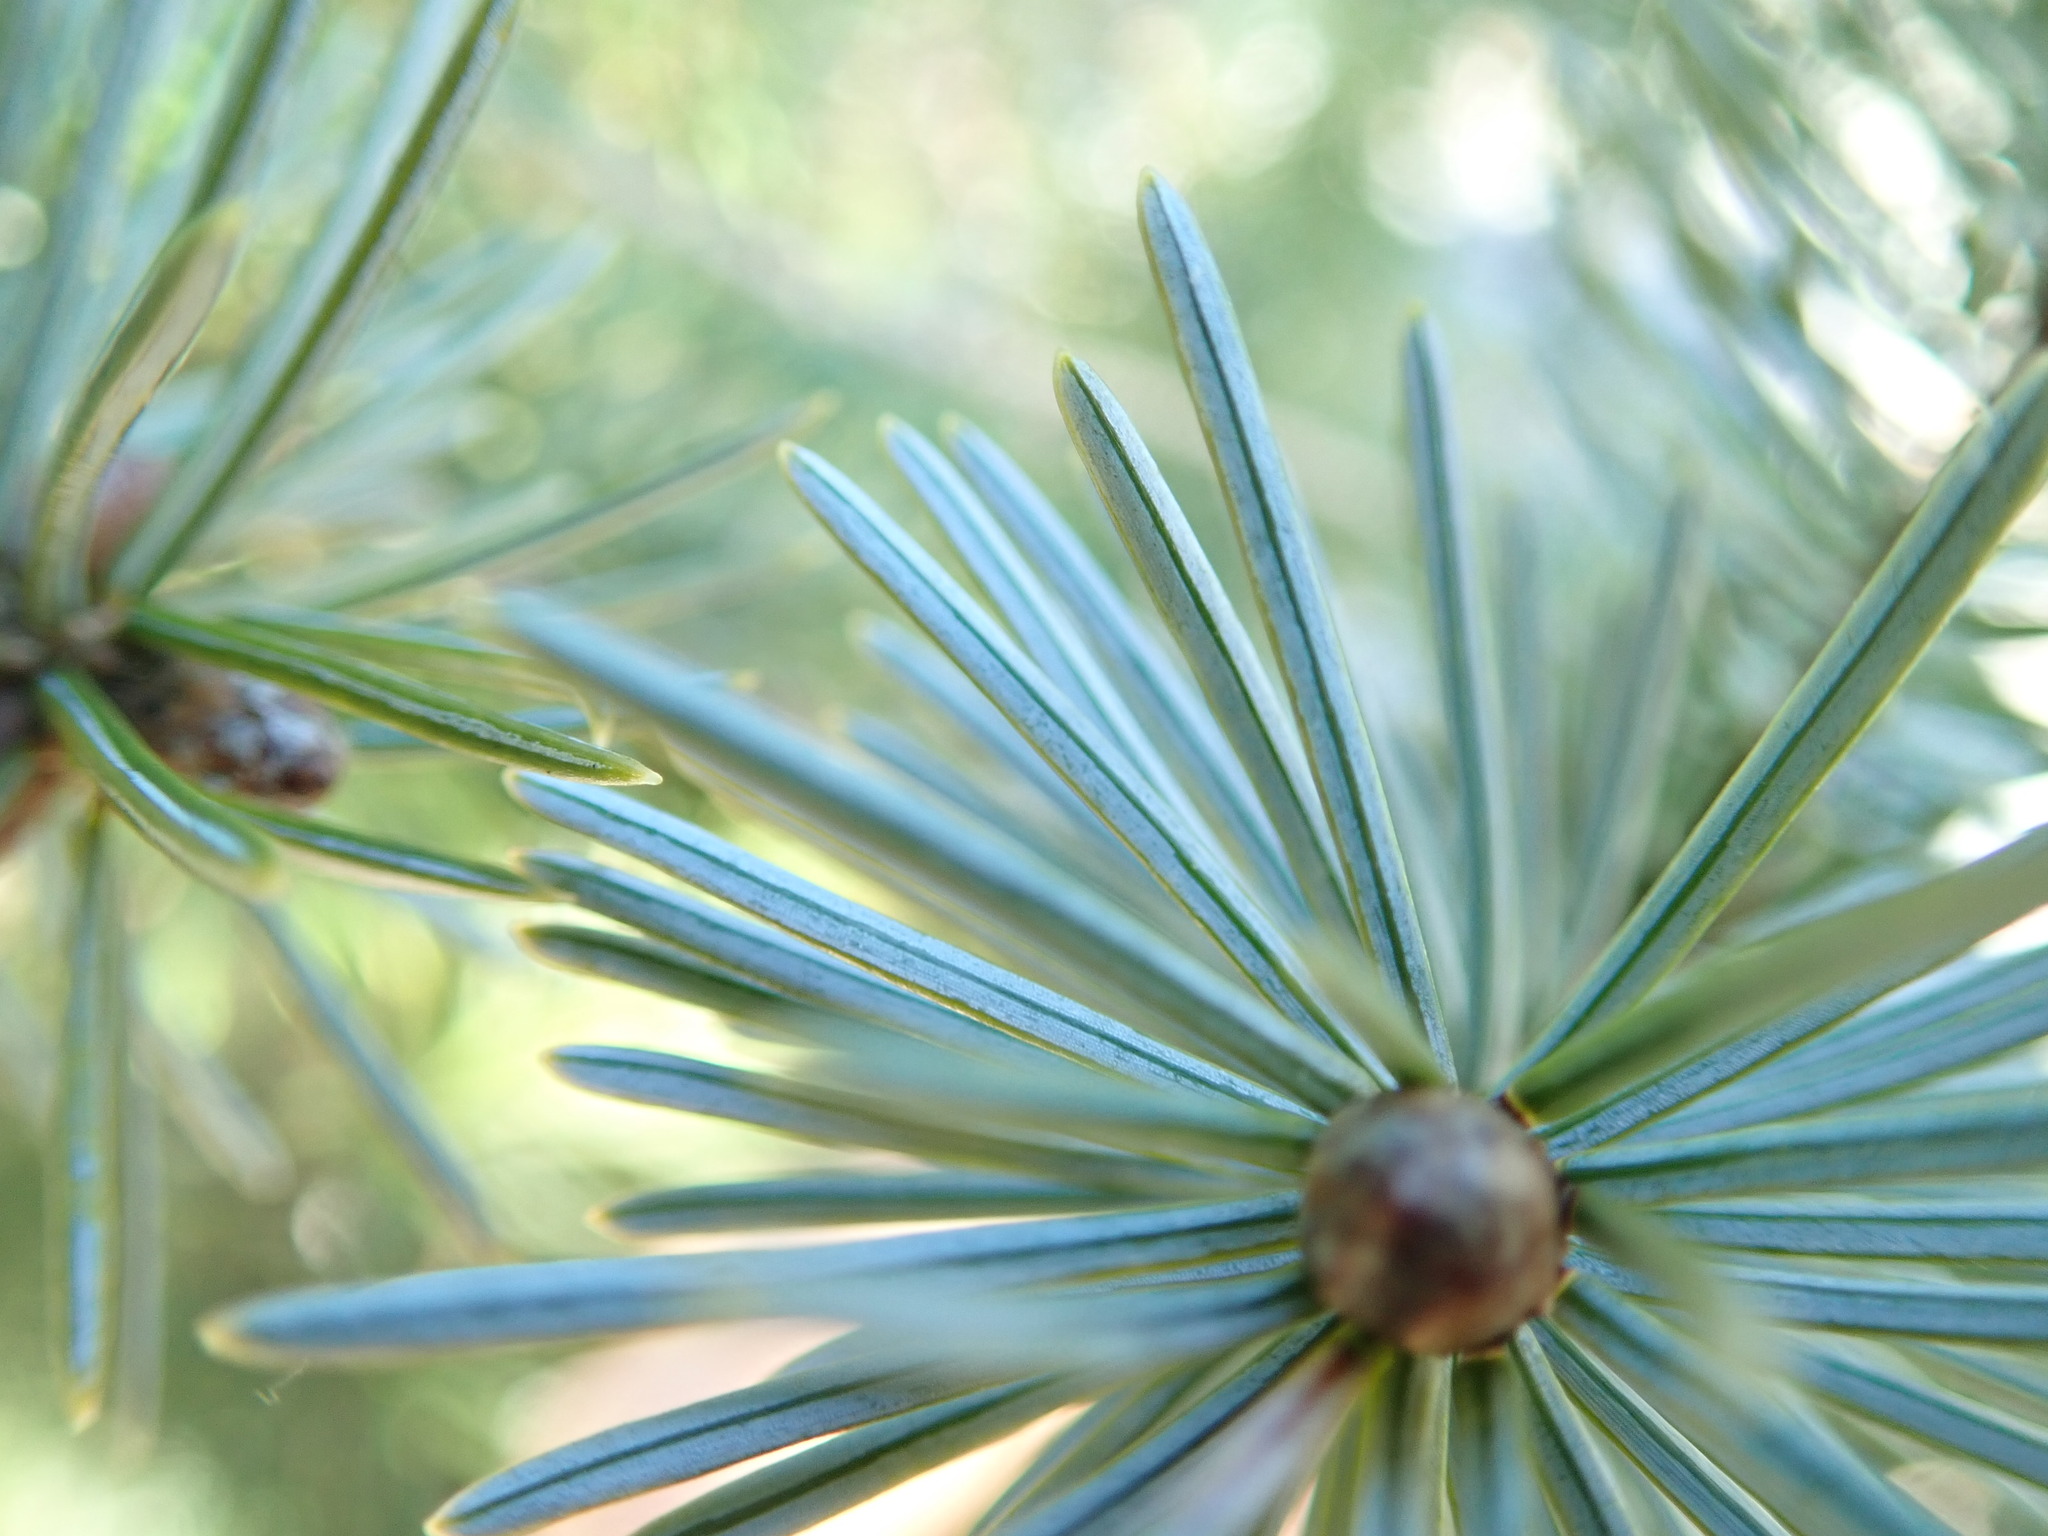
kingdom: Plantae
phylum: Tracheophyta
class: Pinopsida
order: Pinales
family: Pinaceae
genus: Picea
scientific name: Picea sitchensis
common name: Sitka spruce
